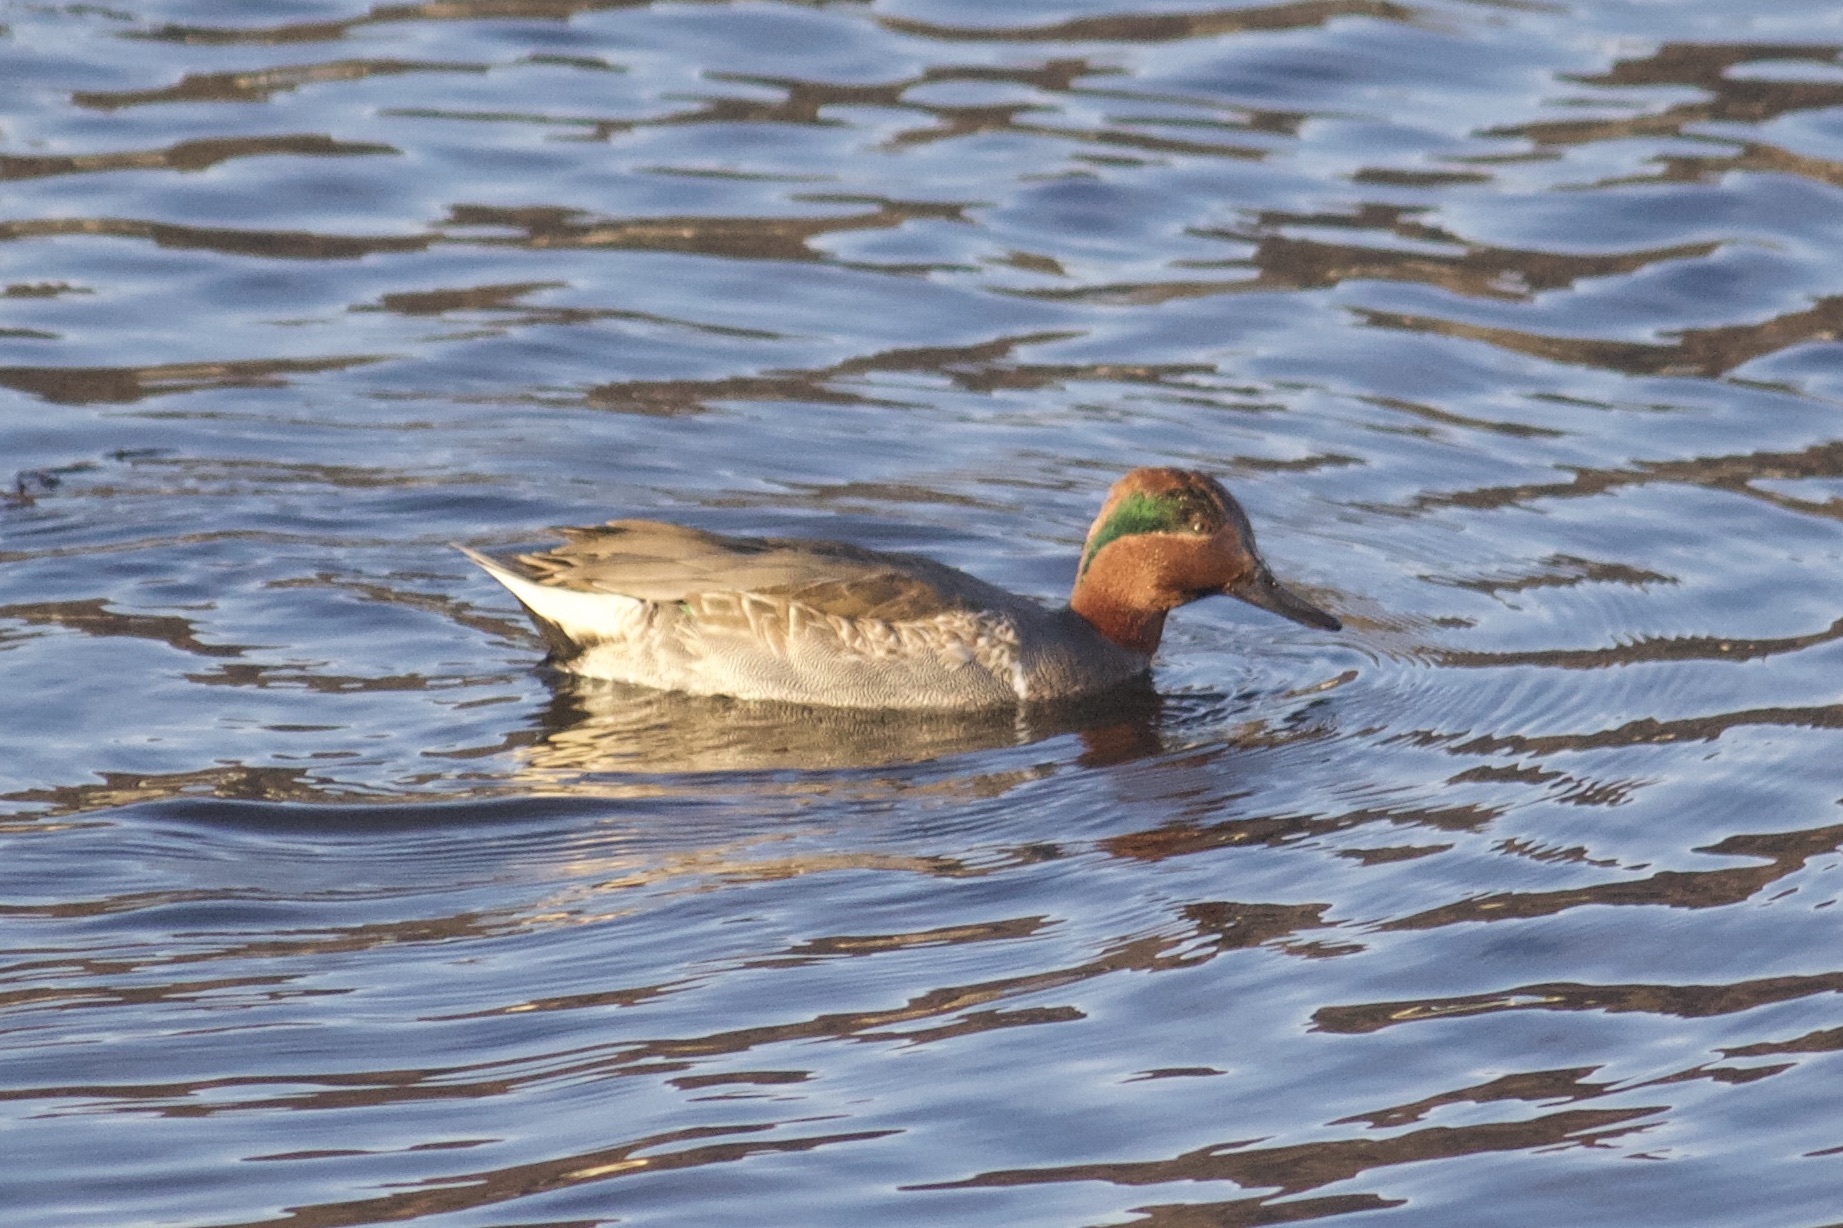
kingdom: Animalia
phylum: Chordata
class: Aves
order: Anseriformes
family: Anatidae
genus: Anas
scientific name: Anas crecca
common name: Eurasian teal
